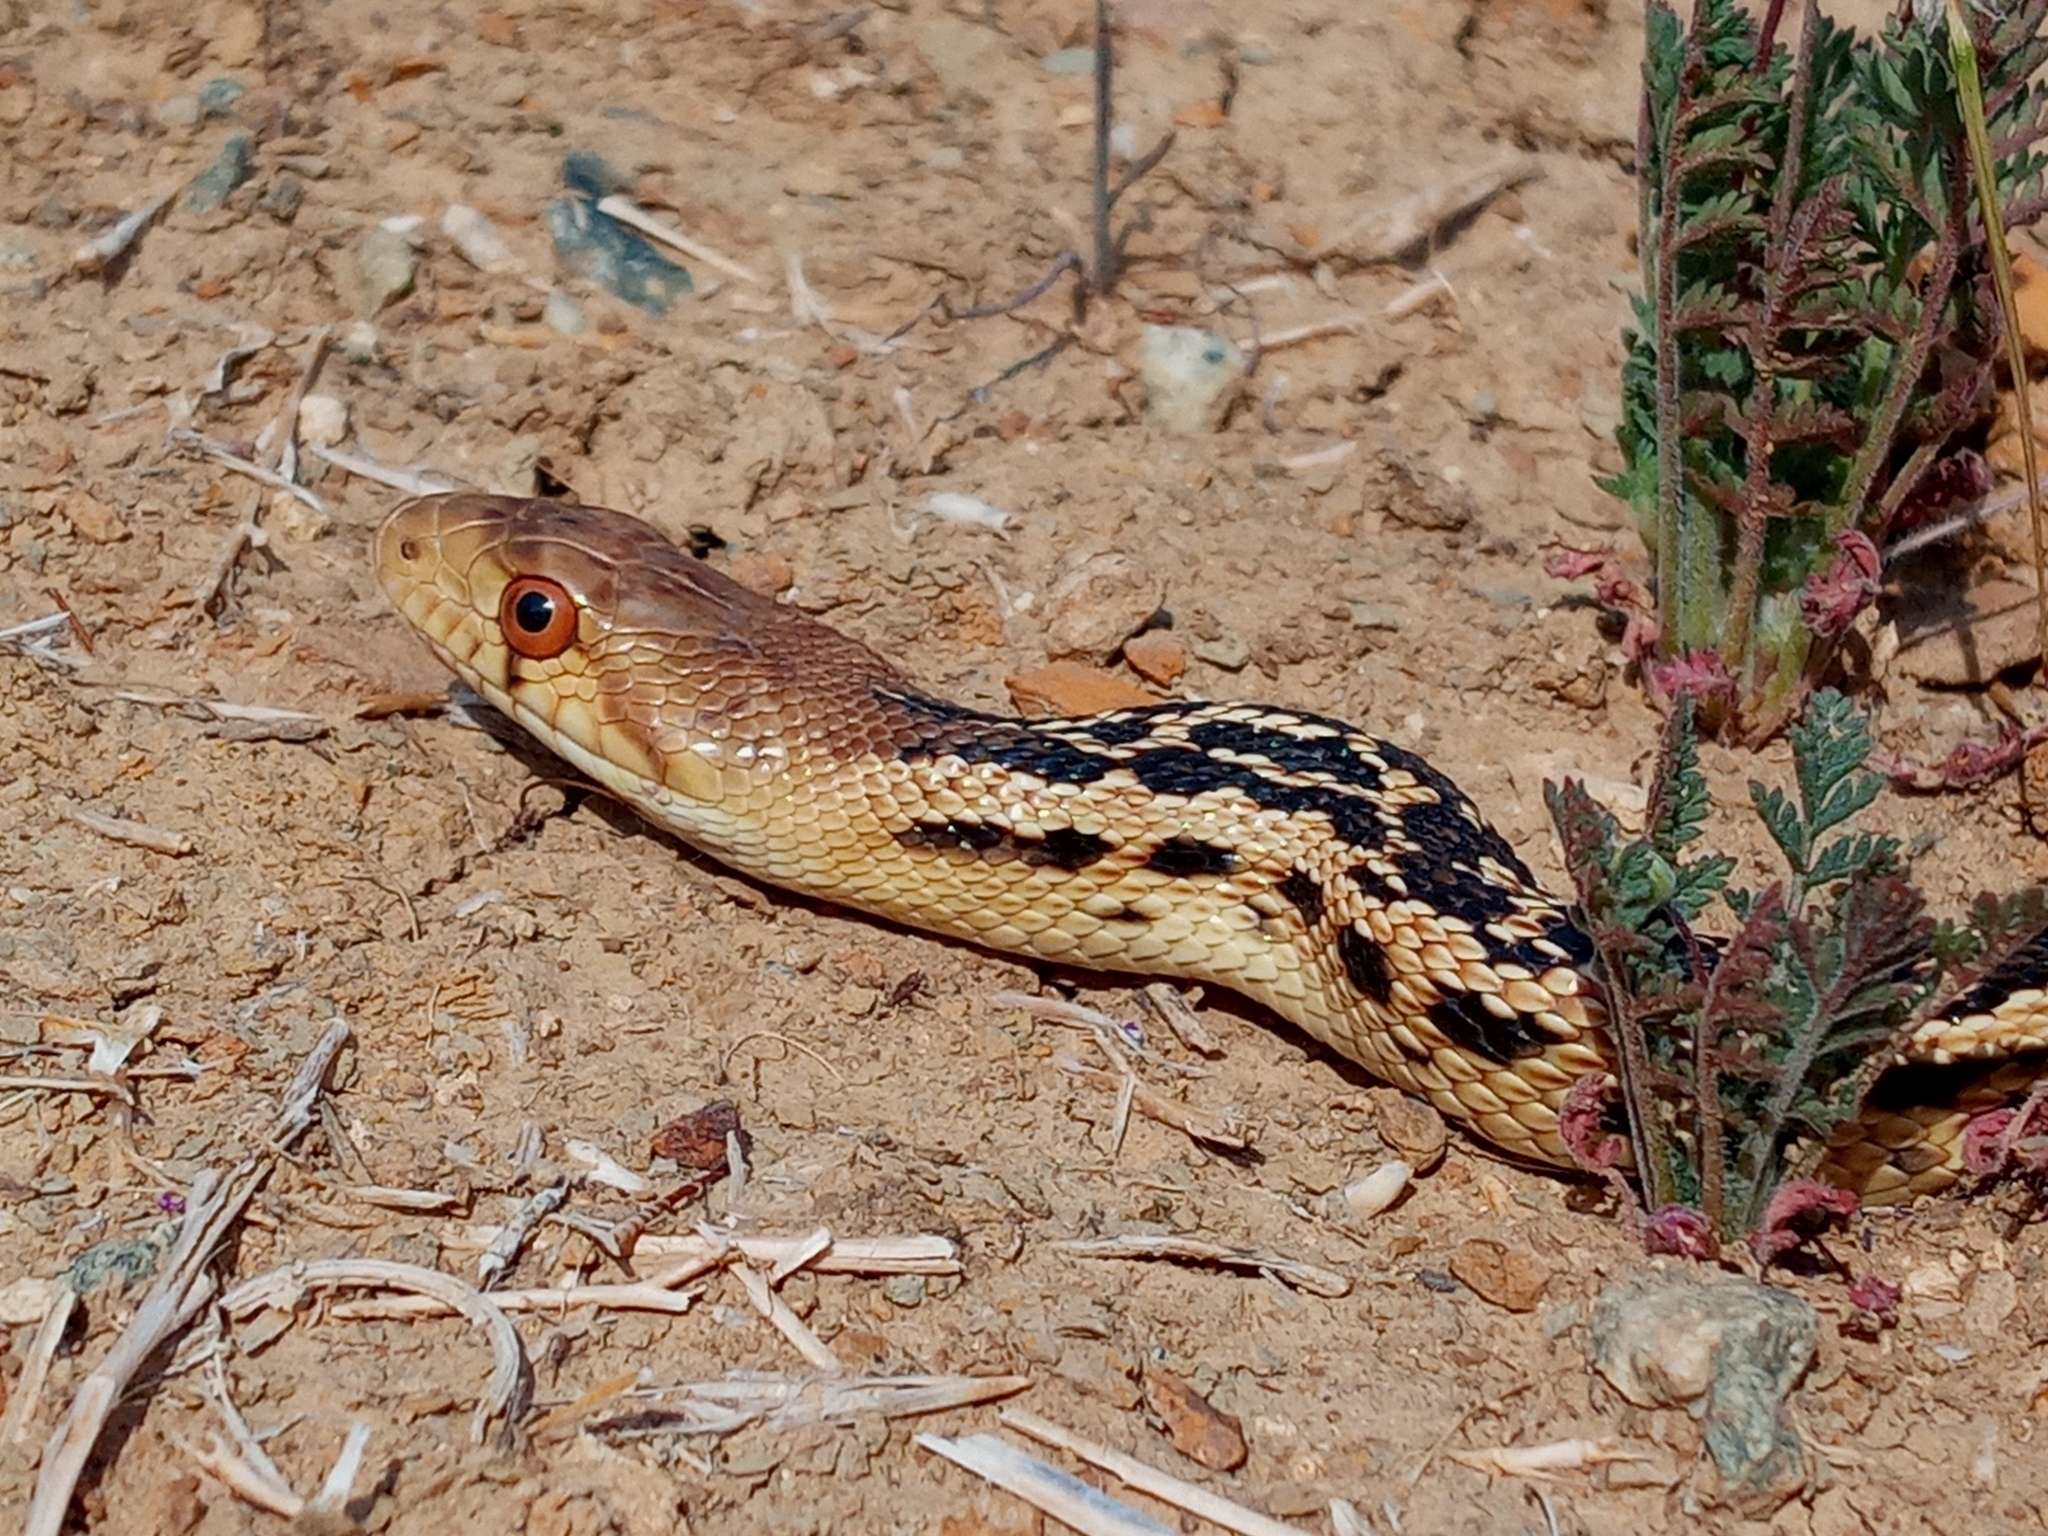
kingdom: Animalia
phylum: Chordata
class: Squamata
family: Colubridae
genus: Pituophis
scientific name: Pituophis catenifer
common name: Gopher snake
